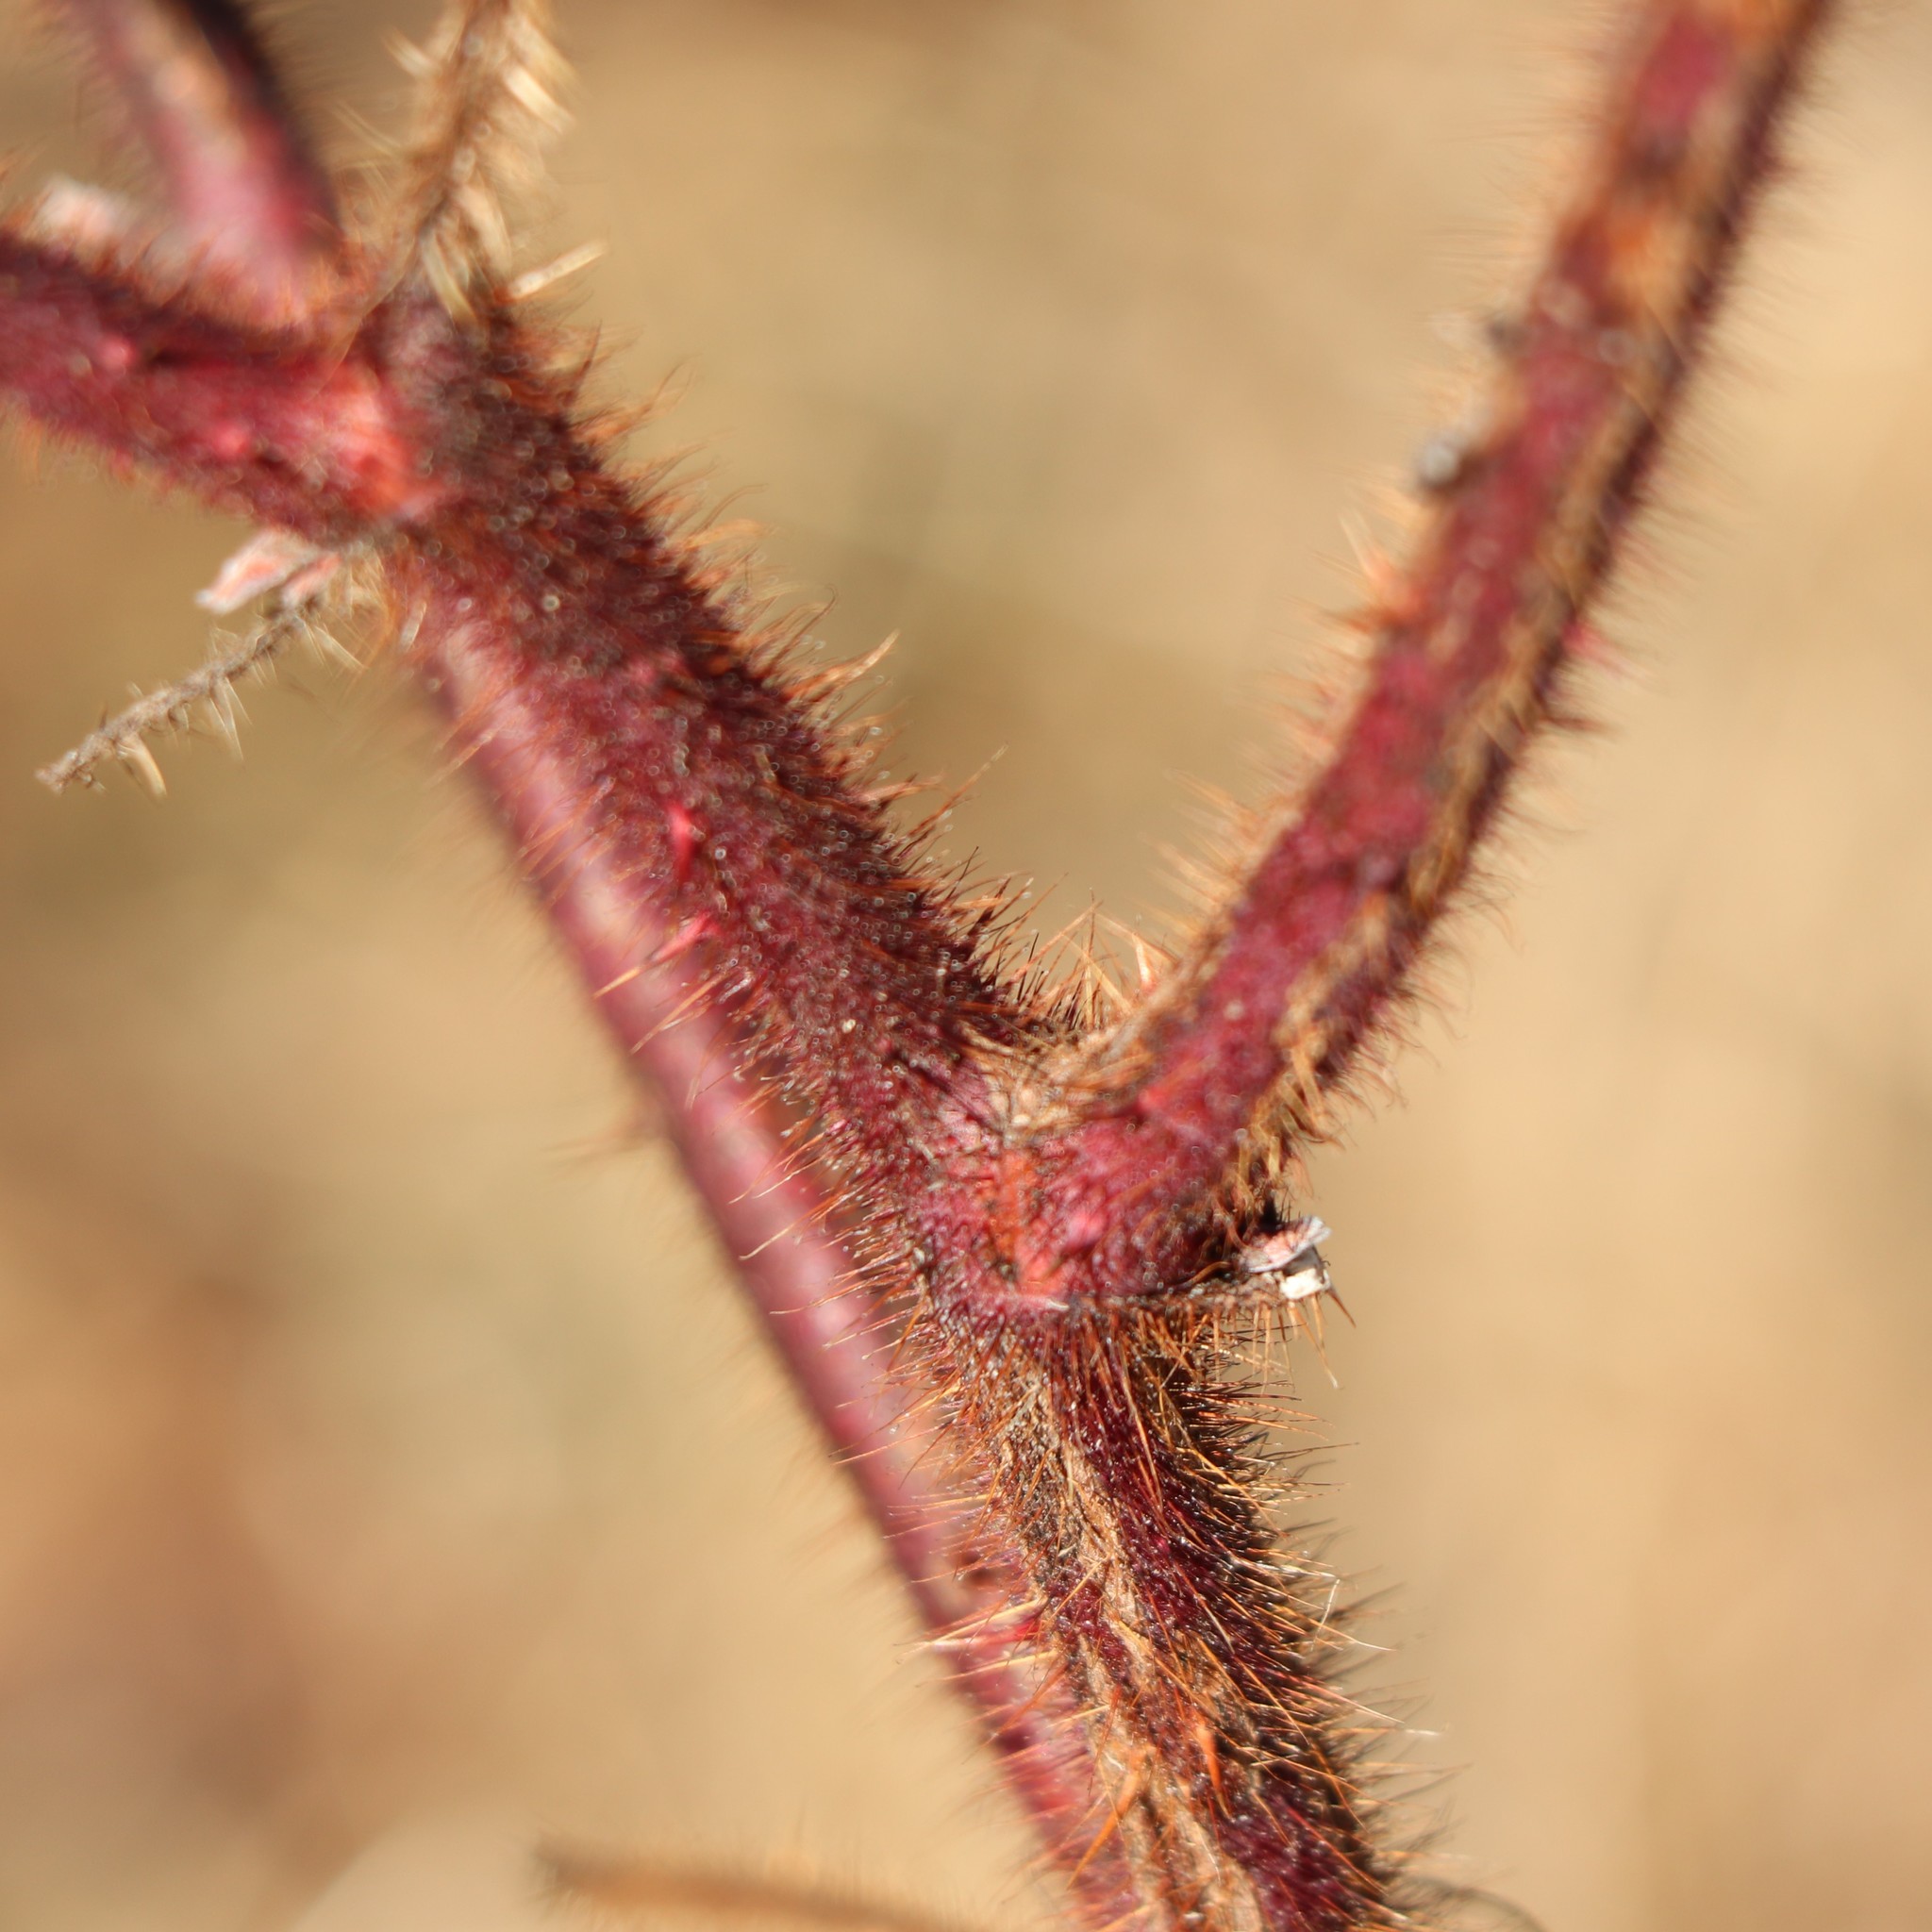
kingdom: Plantae
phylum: Tracheophyta
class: Magnoliopsida
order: Rosales
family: Rosaceae
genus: Rubus
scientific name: Rubus phoenicolasius
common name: Japanese wineberry
